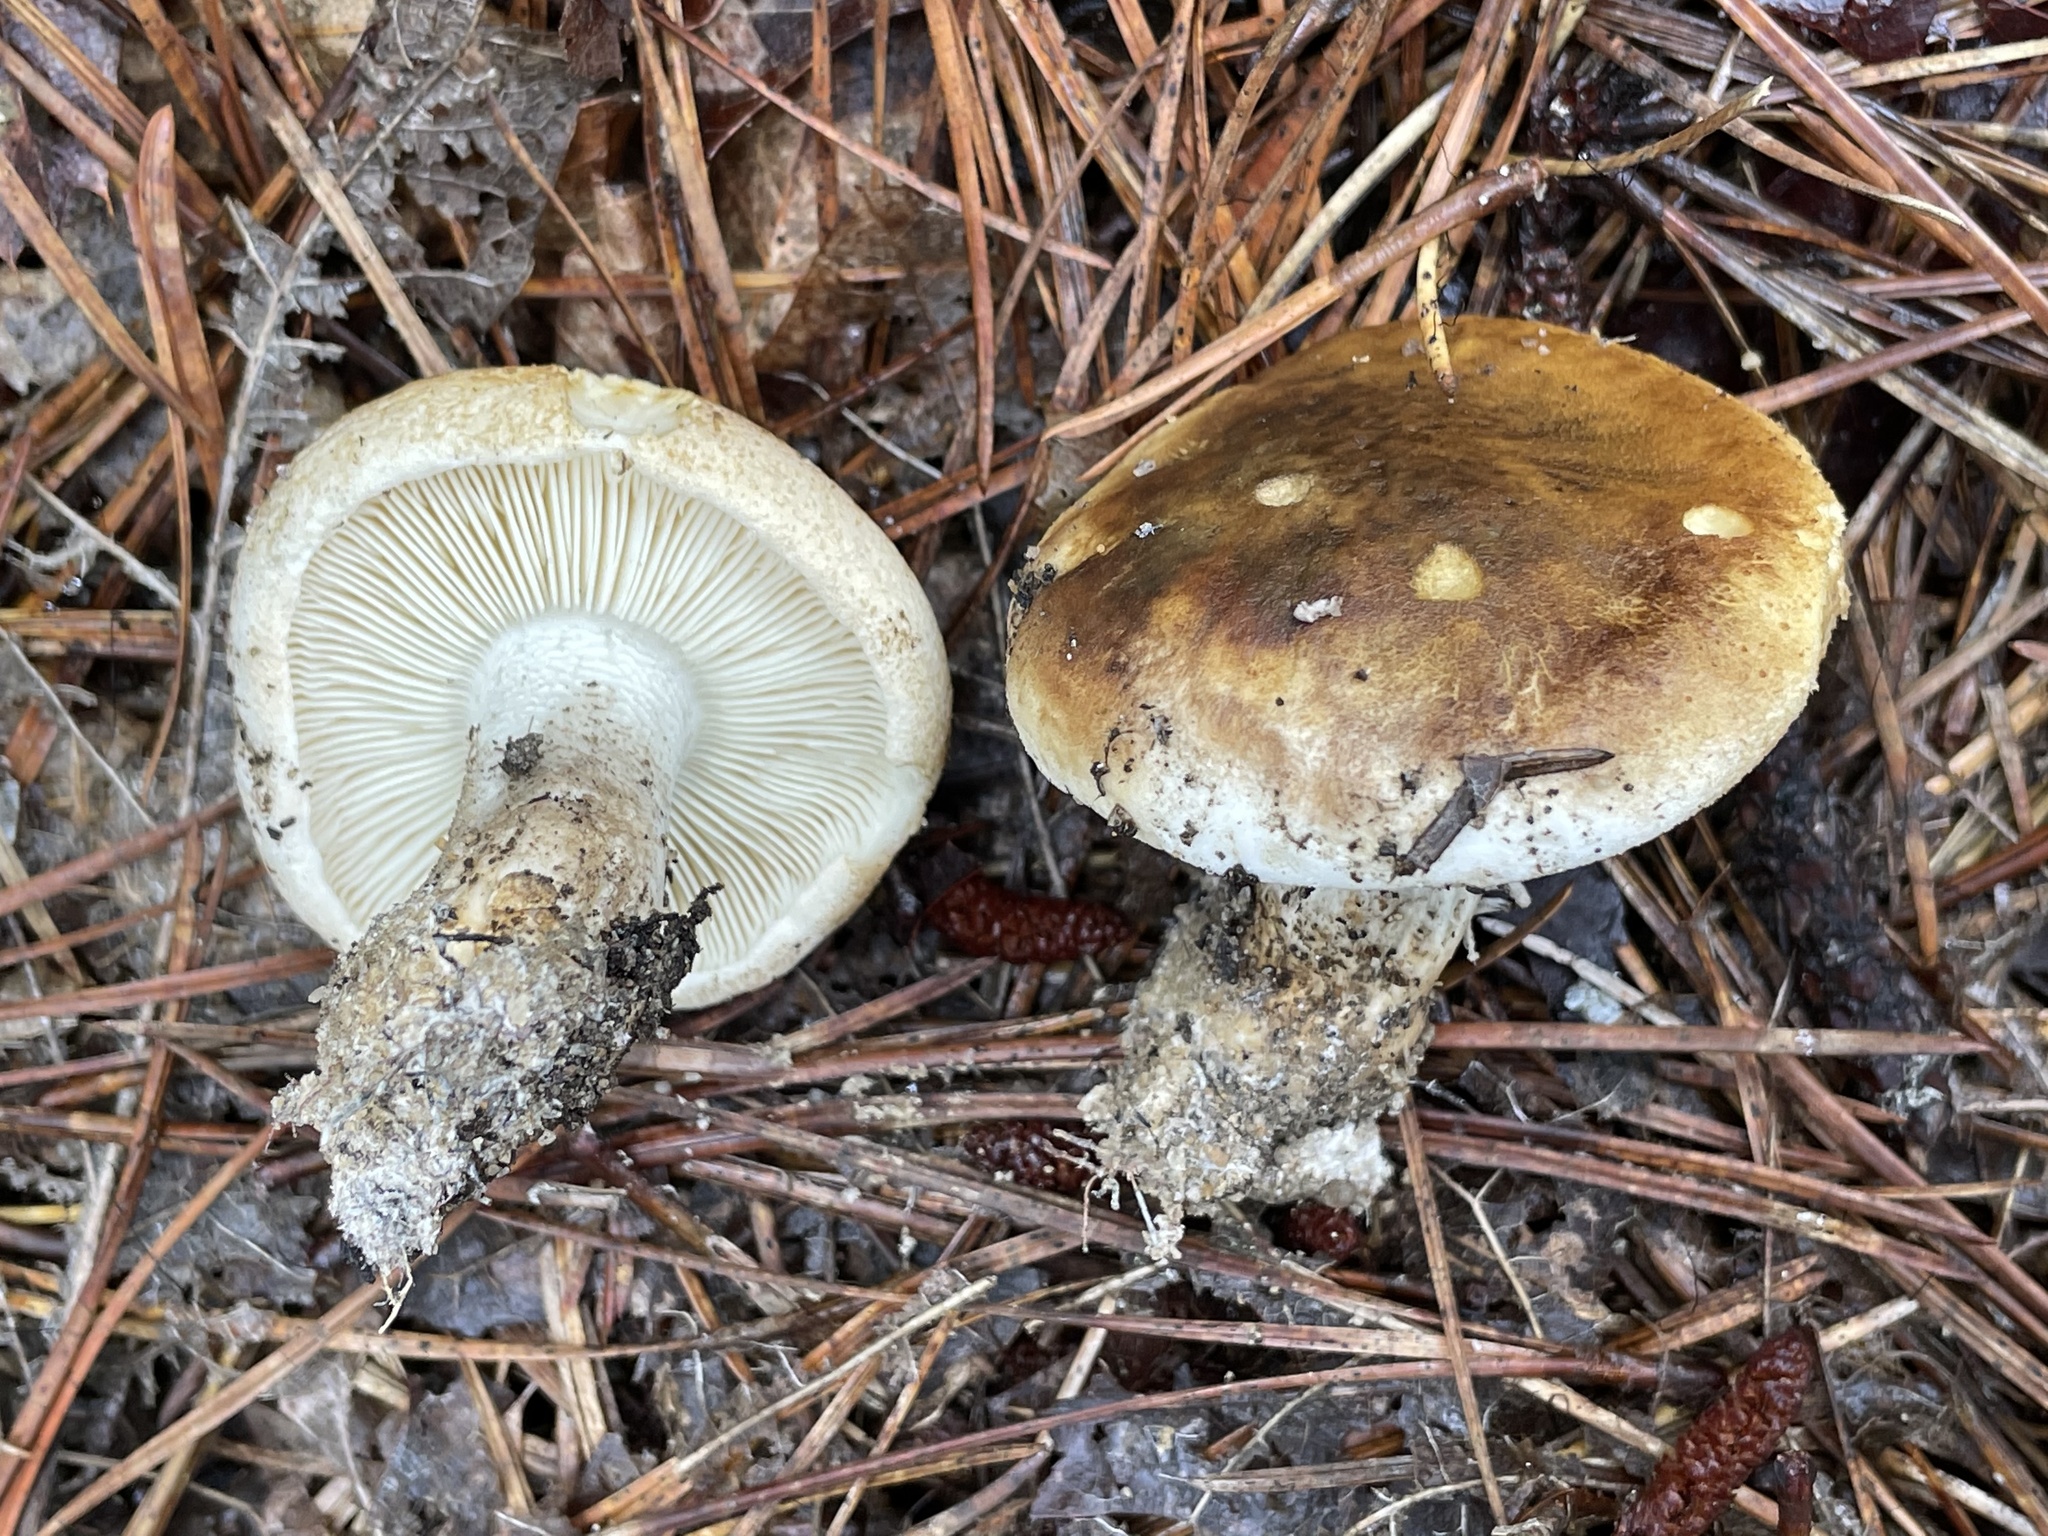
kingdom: Fungi
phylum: Basidiomycota
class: Agaricomycetes
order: Agaricales
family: Tricholomataceae
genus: Tricholoma
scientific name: Tricholoma apium
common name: Scented knight
